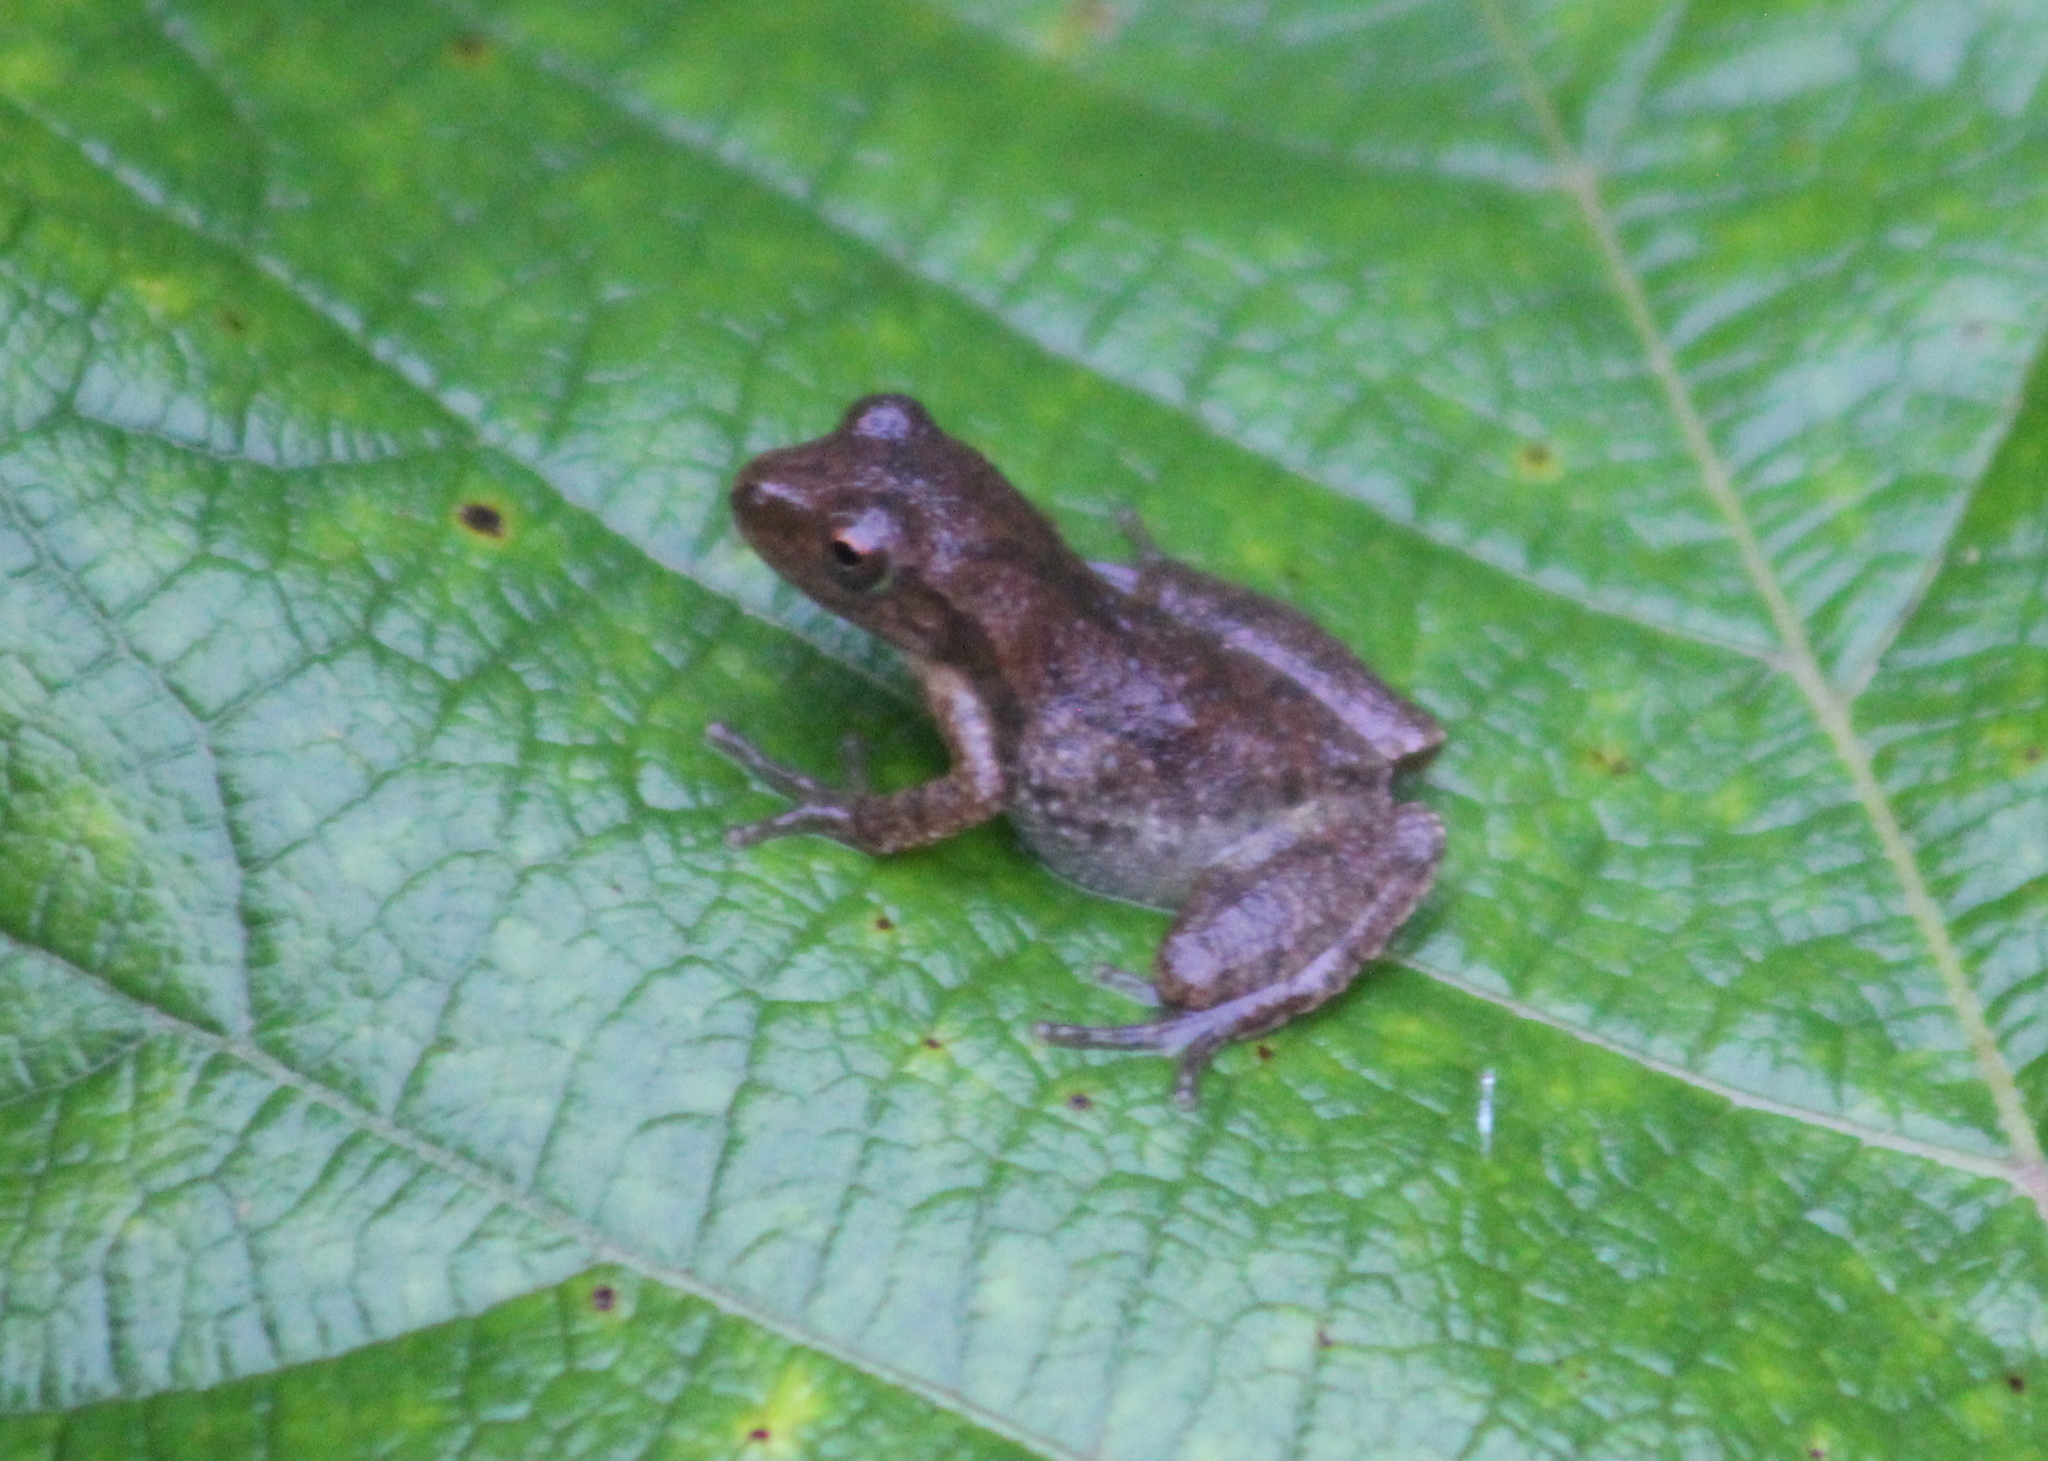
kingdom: Animalia
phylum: Chordata
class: Amphibia
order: Anura
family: Hylidae
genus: Pseudacris
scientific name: Pseudacris crucifer
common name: Spring peeper
